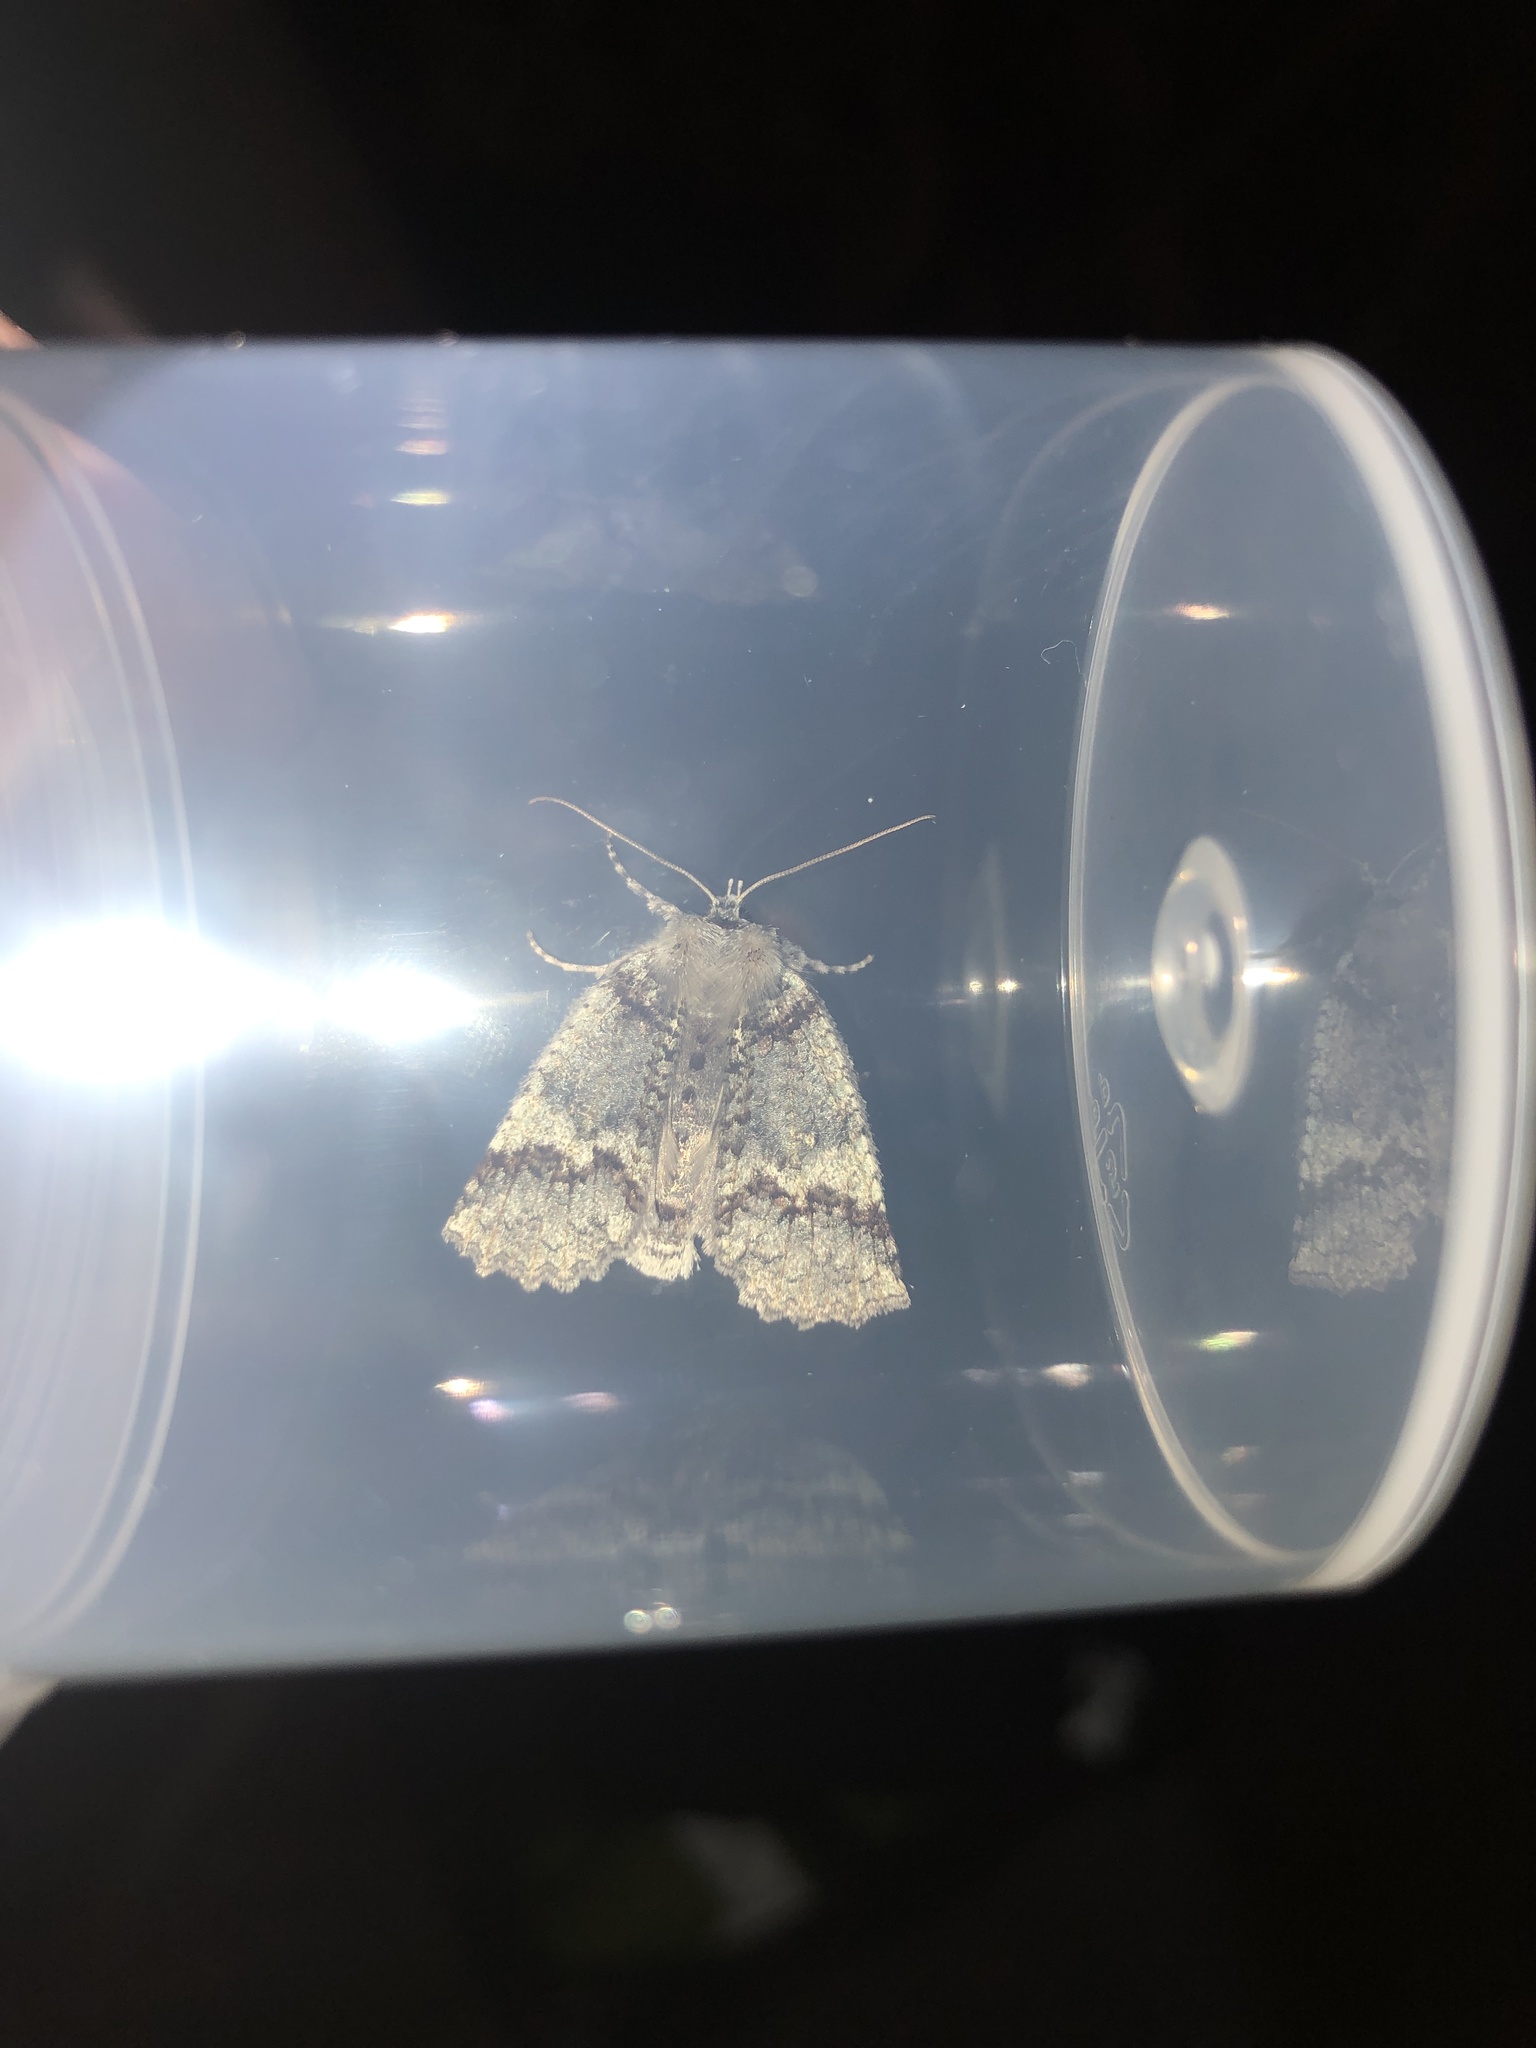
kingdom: Animalia
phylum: Arthropoda
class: Insecta
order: Lepidoptera
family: Geometridae
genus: Declana
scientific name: Declana floccosa
